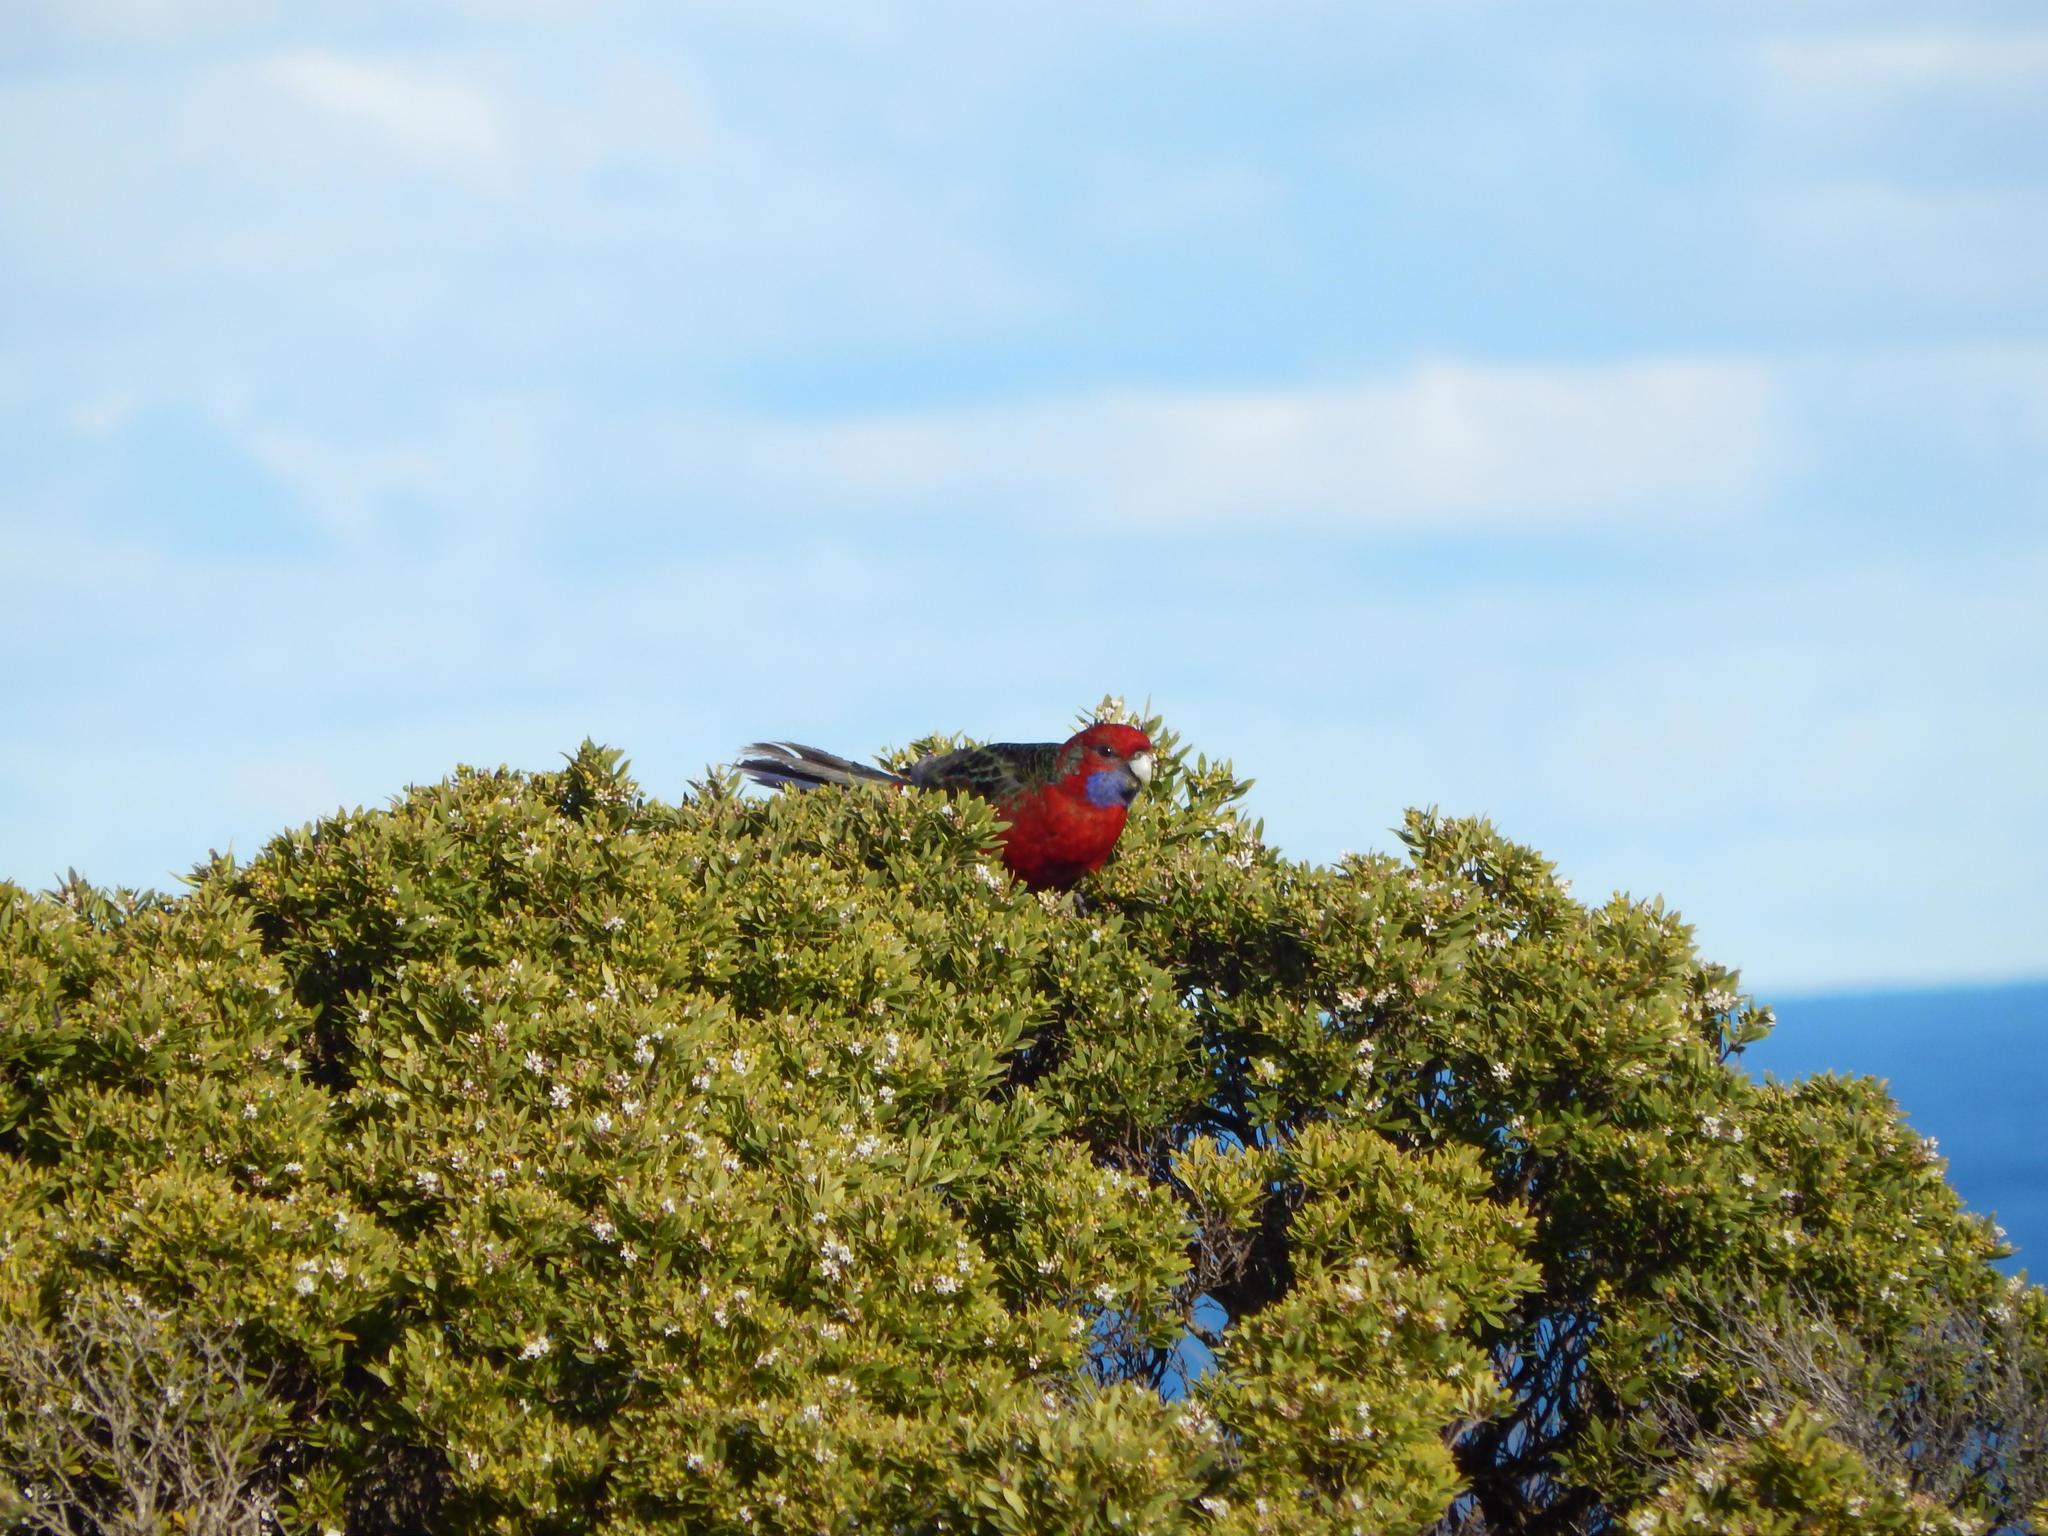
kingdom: Animalia
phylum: Chordata
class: Aves
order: Psittaciformes
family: Psittacidae
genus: Platycercus
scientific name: Platycercus elegans
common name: Crimson rosella
